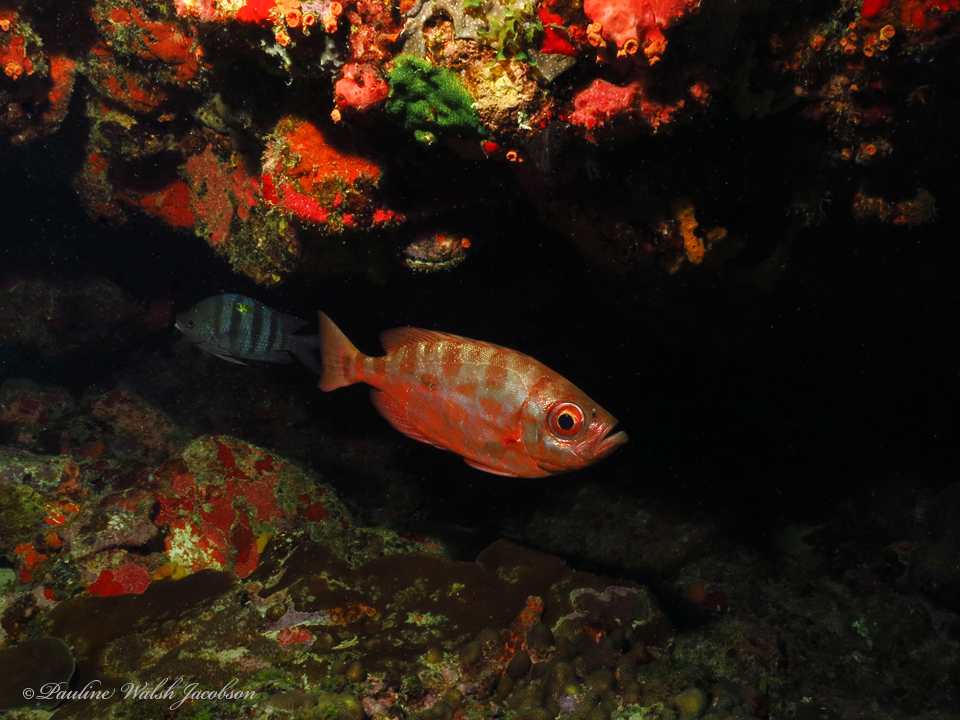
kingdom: Animalia
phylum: Chordata
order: Perciformes
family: Priacanthidae
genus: Heteropriacanthus
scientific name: Heteropriacanthus cruentatus
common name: Glasseye
